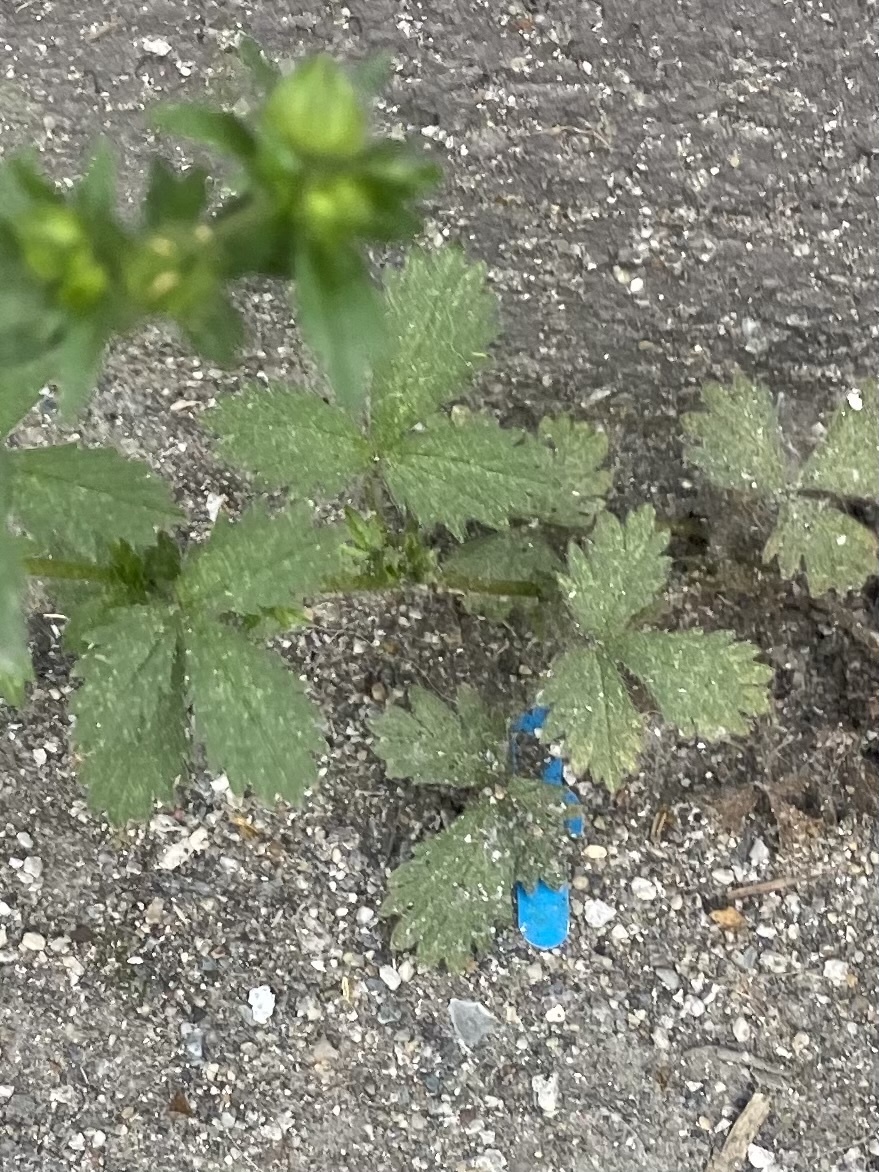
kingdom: Plantae
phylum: Tracheophyta
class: Magnoliopsida
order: Rosales
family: Rosaceae
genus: Potentilla
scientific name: Potentilla norvegica
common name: Ternate-leaved cinquefoil
